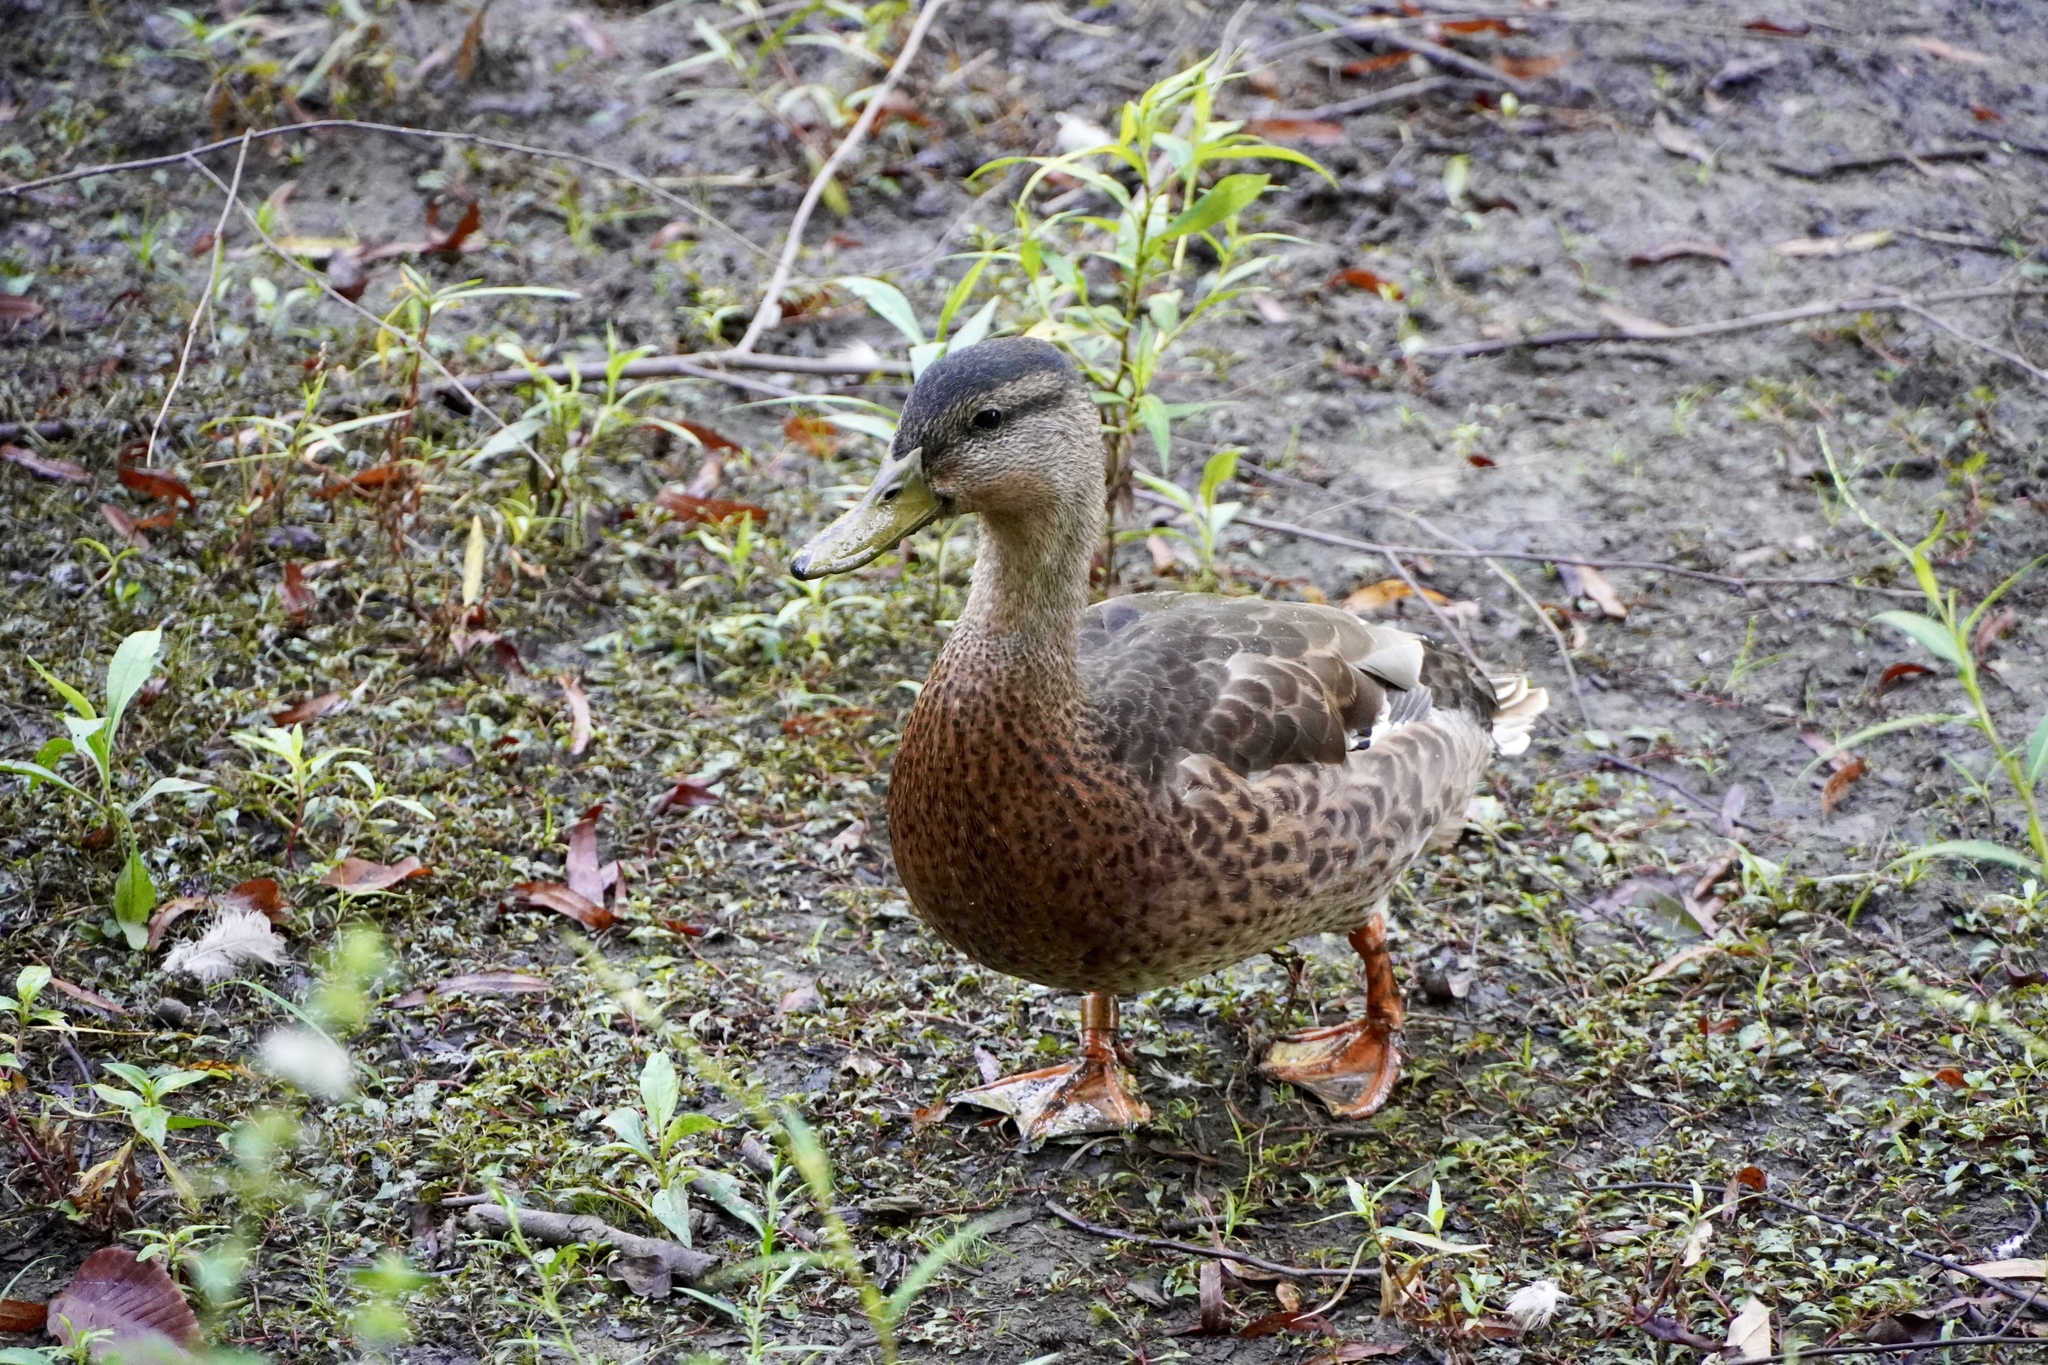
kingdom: Animalia
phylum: Chordata
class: Aves
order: Anseriformes
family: Anatidae
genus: Anas
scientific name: Anas platyrhynchos
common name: Mallard
